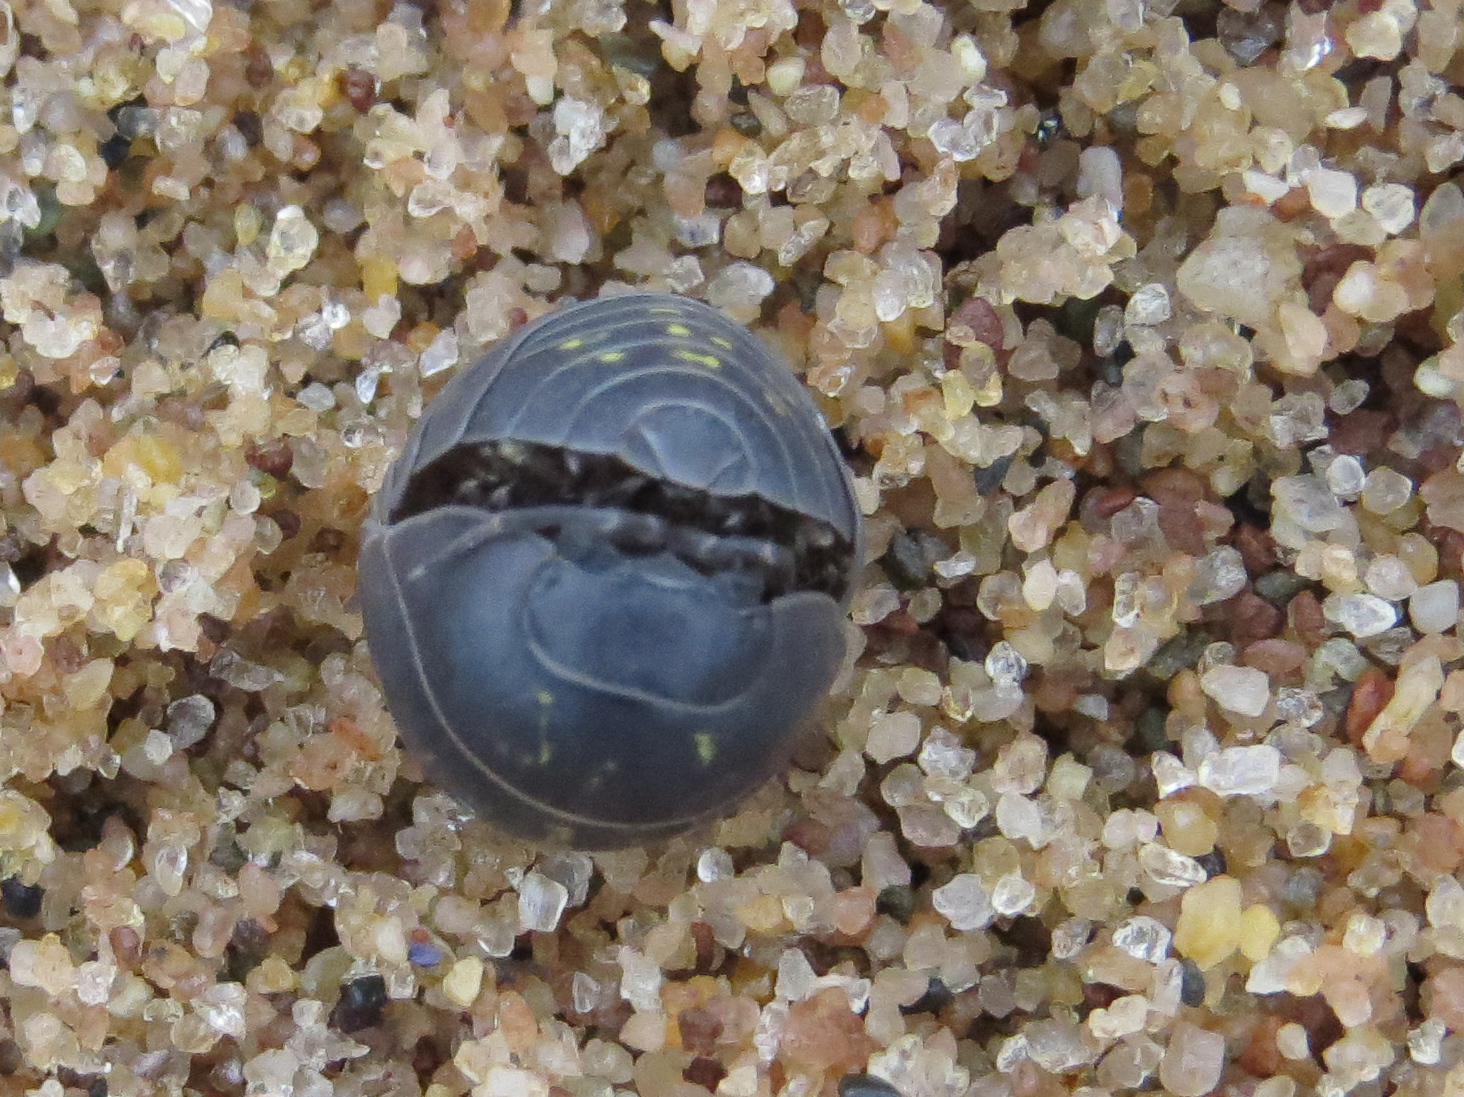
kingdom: Animalia
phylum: Arthropoda
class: Malacostraca
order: Isopoda
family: Armadillidiidae
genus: Armadillidium
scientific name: Armadillidium vulgare
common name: Common pill woodlouse
